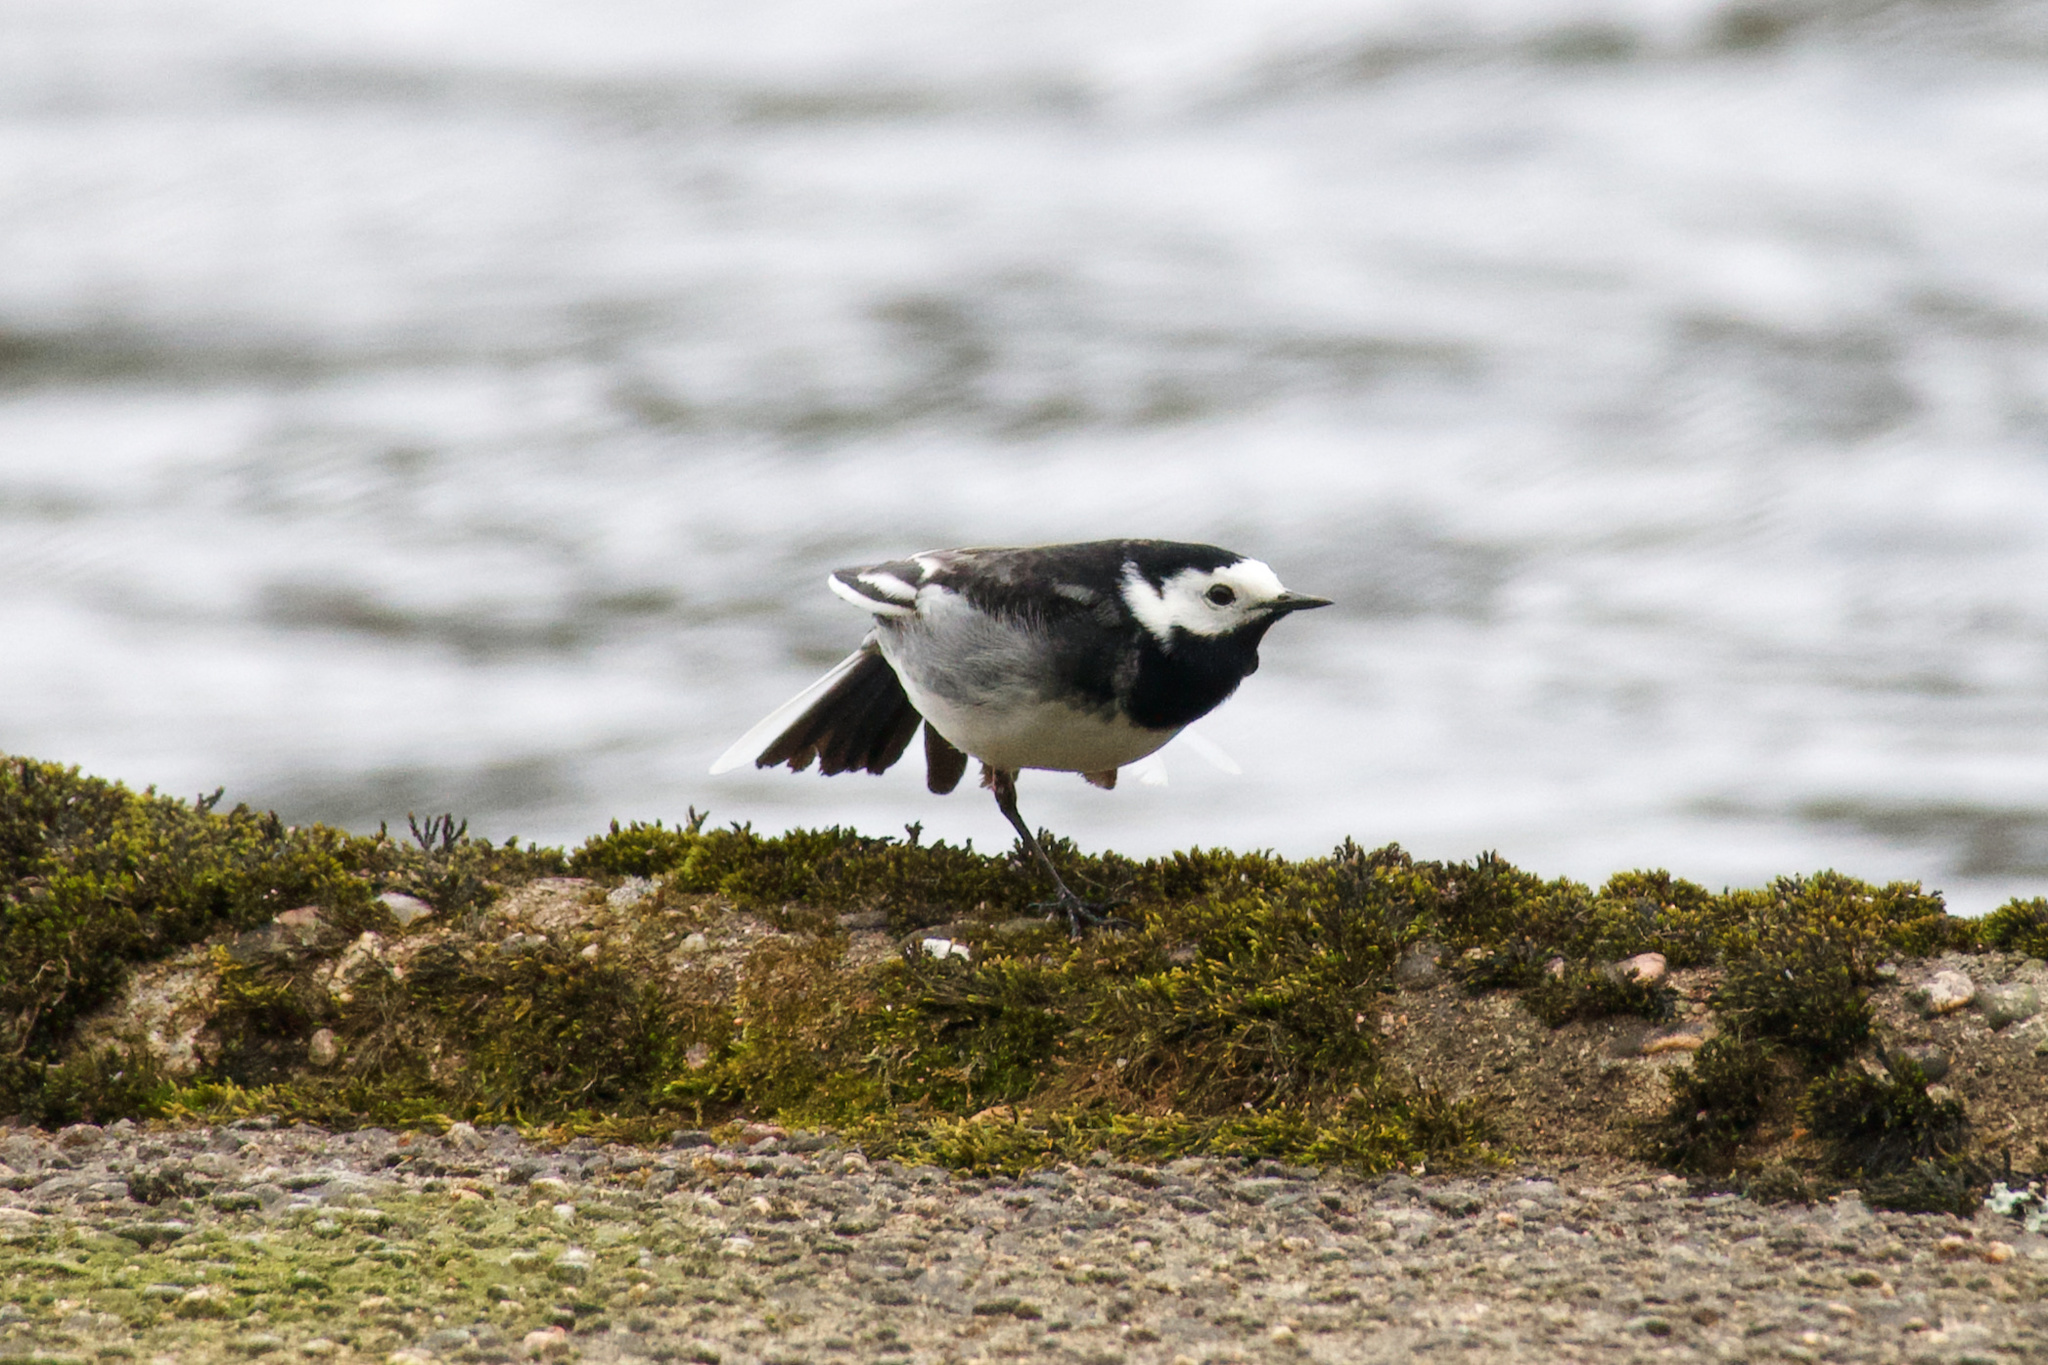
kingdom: Animalia
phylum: Chordata
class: Aves
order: Passeriformes
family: Motacillidae
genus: Motacilla
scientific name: Motacilla alba
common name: White wagtail
